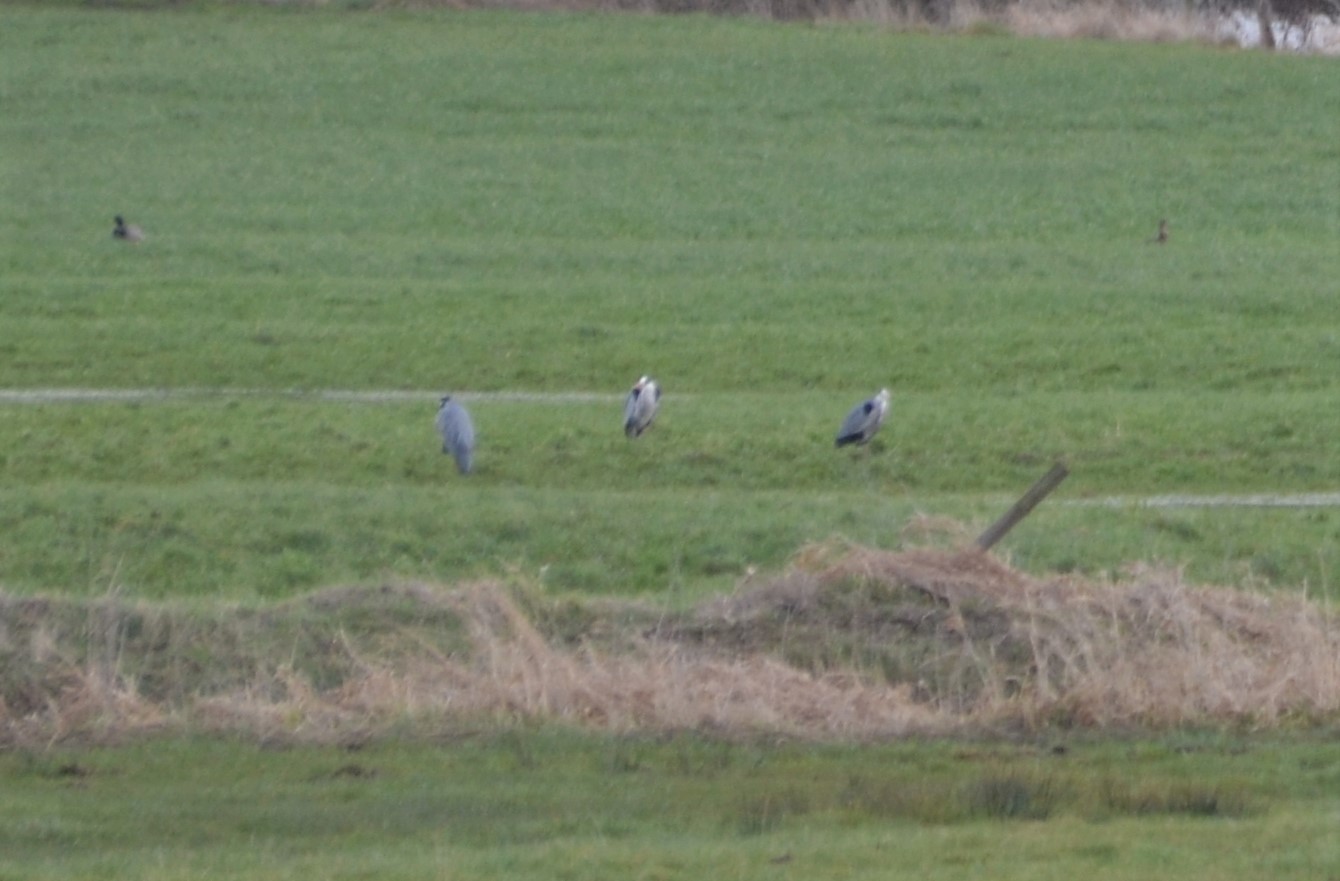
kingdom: Animalia
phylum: Chordata
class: Aves
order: Pelecaniformes
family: Ardeidae
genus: Ardea
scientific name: Ardea cinerea
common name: Grey heron
